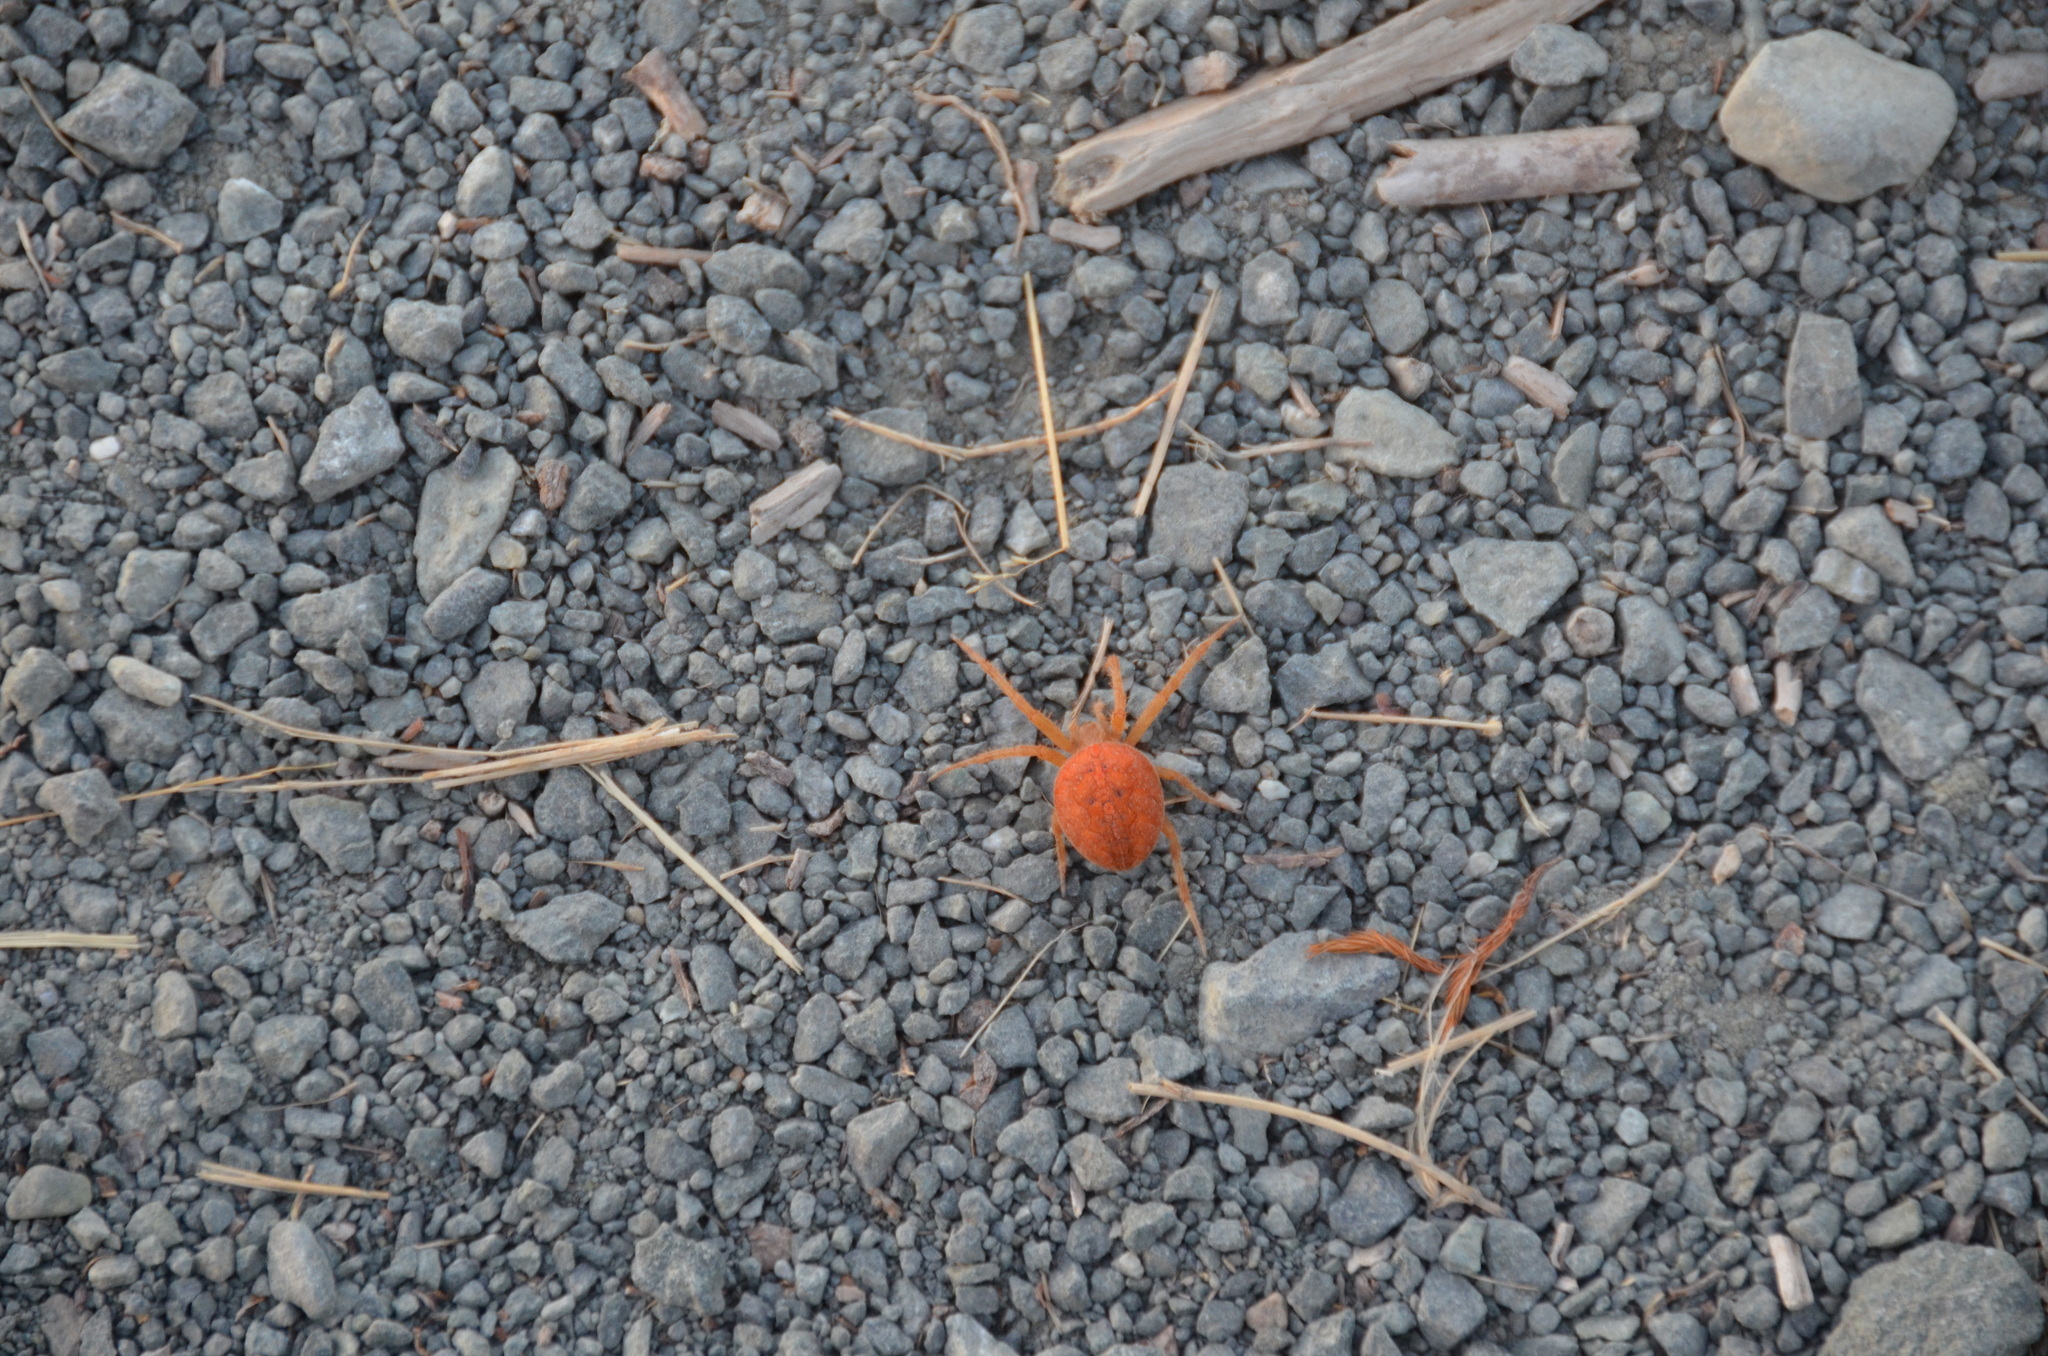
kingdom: Animalia
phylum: Arthropoda
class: Arachnida
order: Araneae
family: Araneidae
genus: Araneus
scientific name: Araneus diadematus
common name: Cross orbweaver
